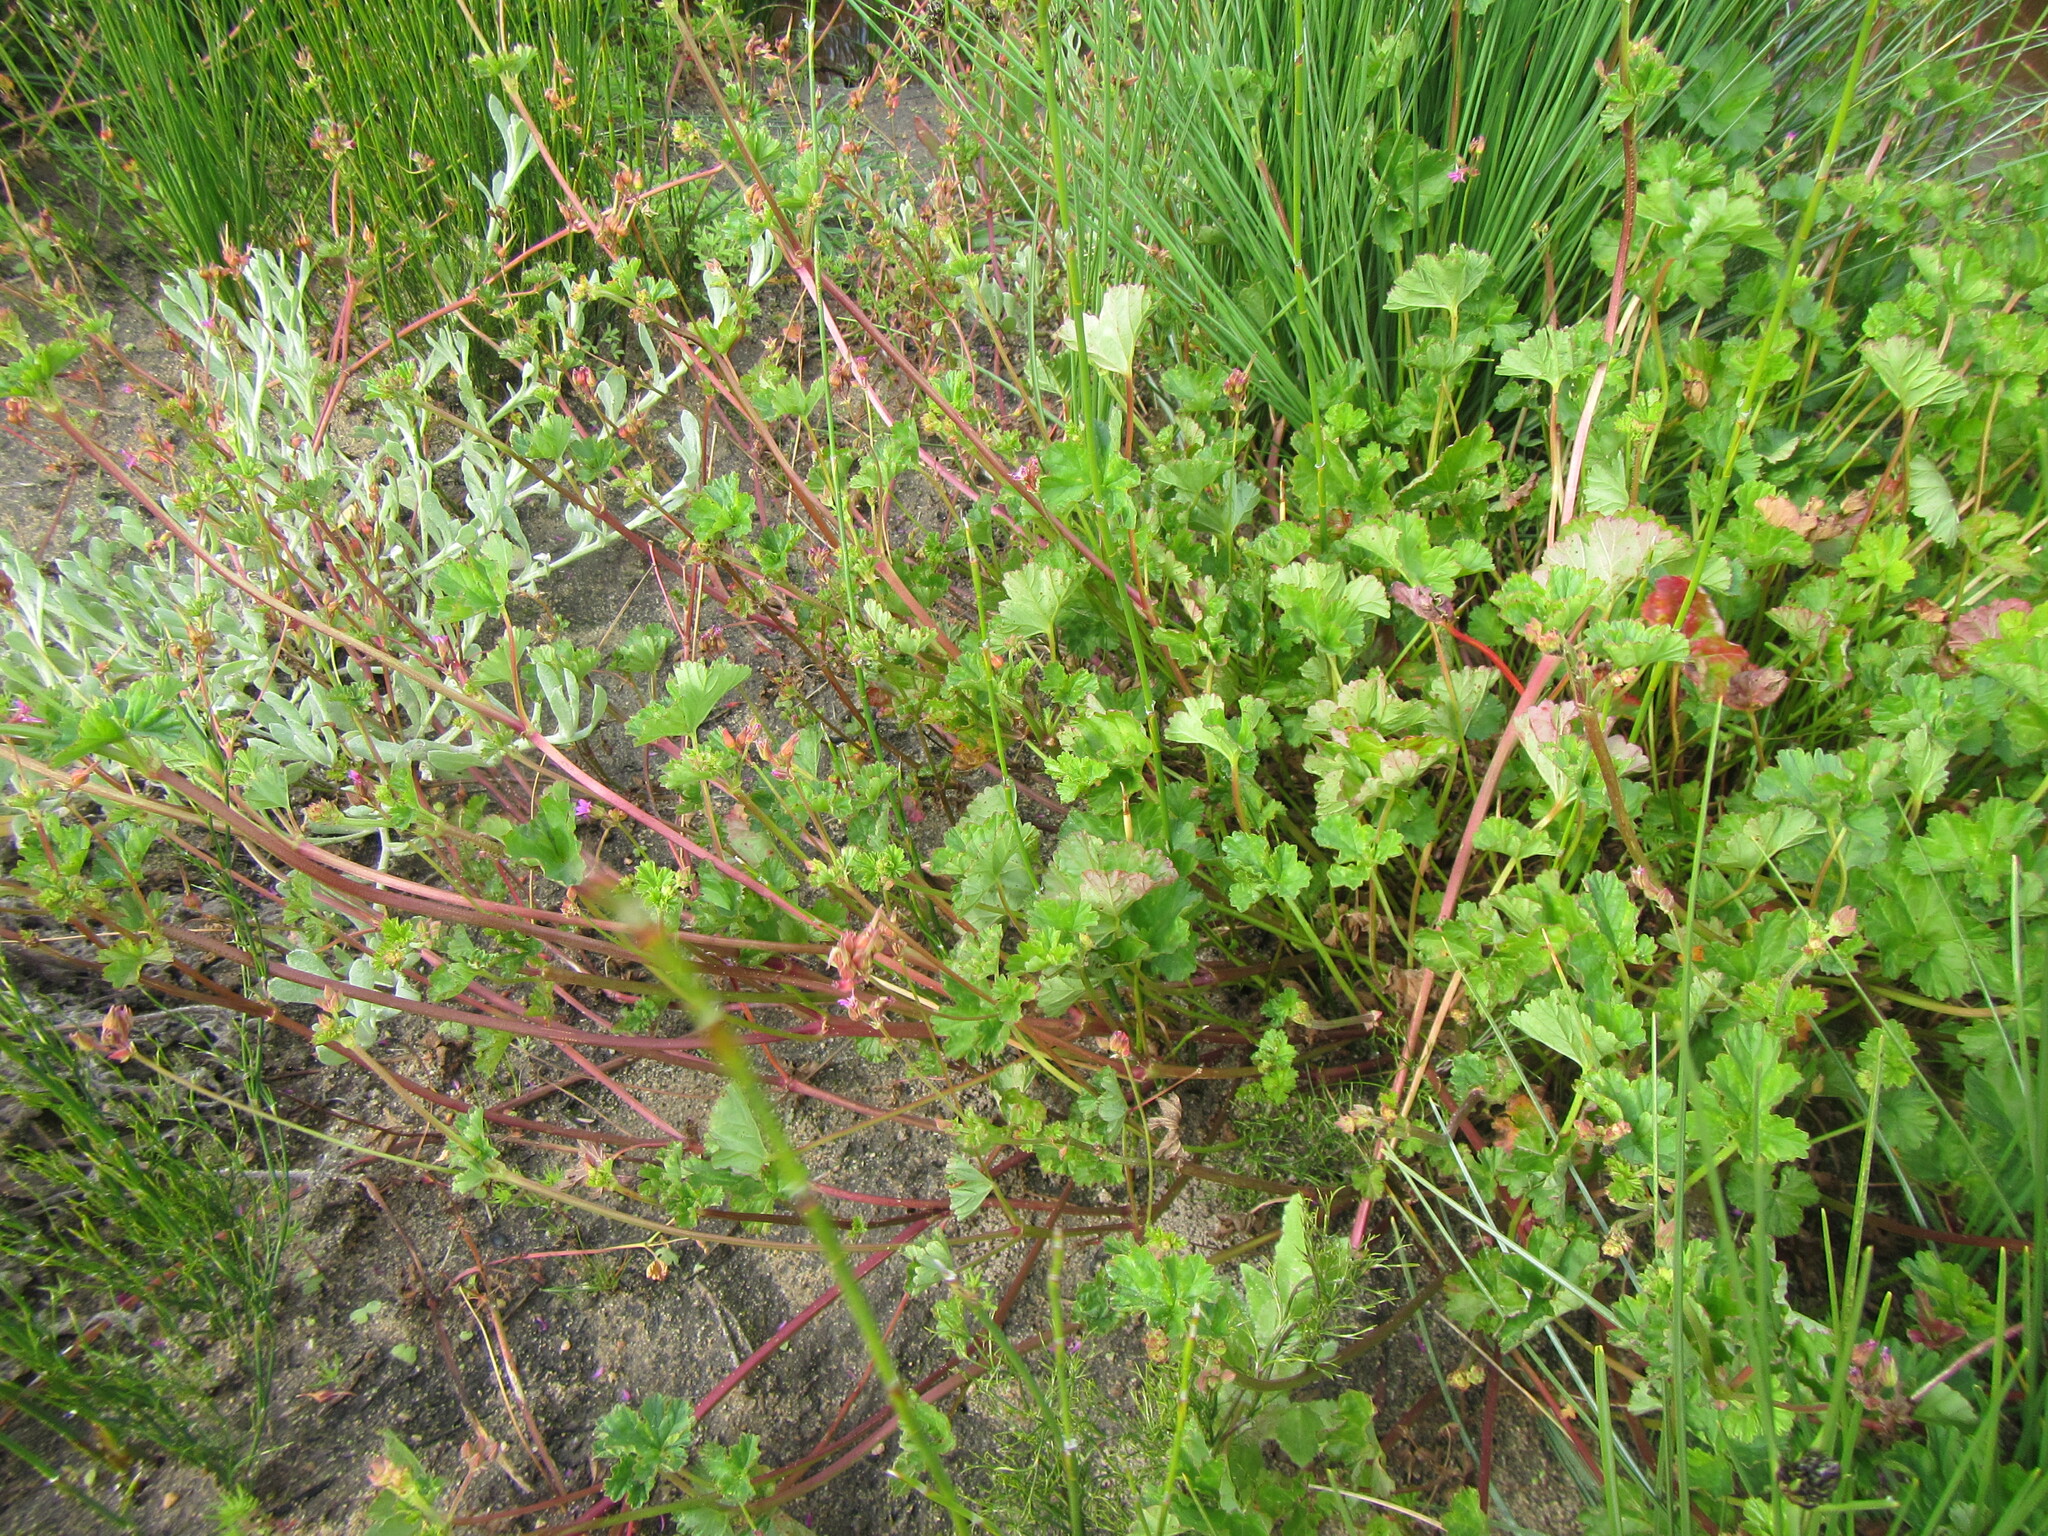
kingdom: Plantae
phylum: Tracheophyta
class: Magnoliopsida
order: Geraniales
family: Geraniaceae
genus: Pelargonium
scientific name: Pelargonium grossularioides
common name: Gooseberry geranium
